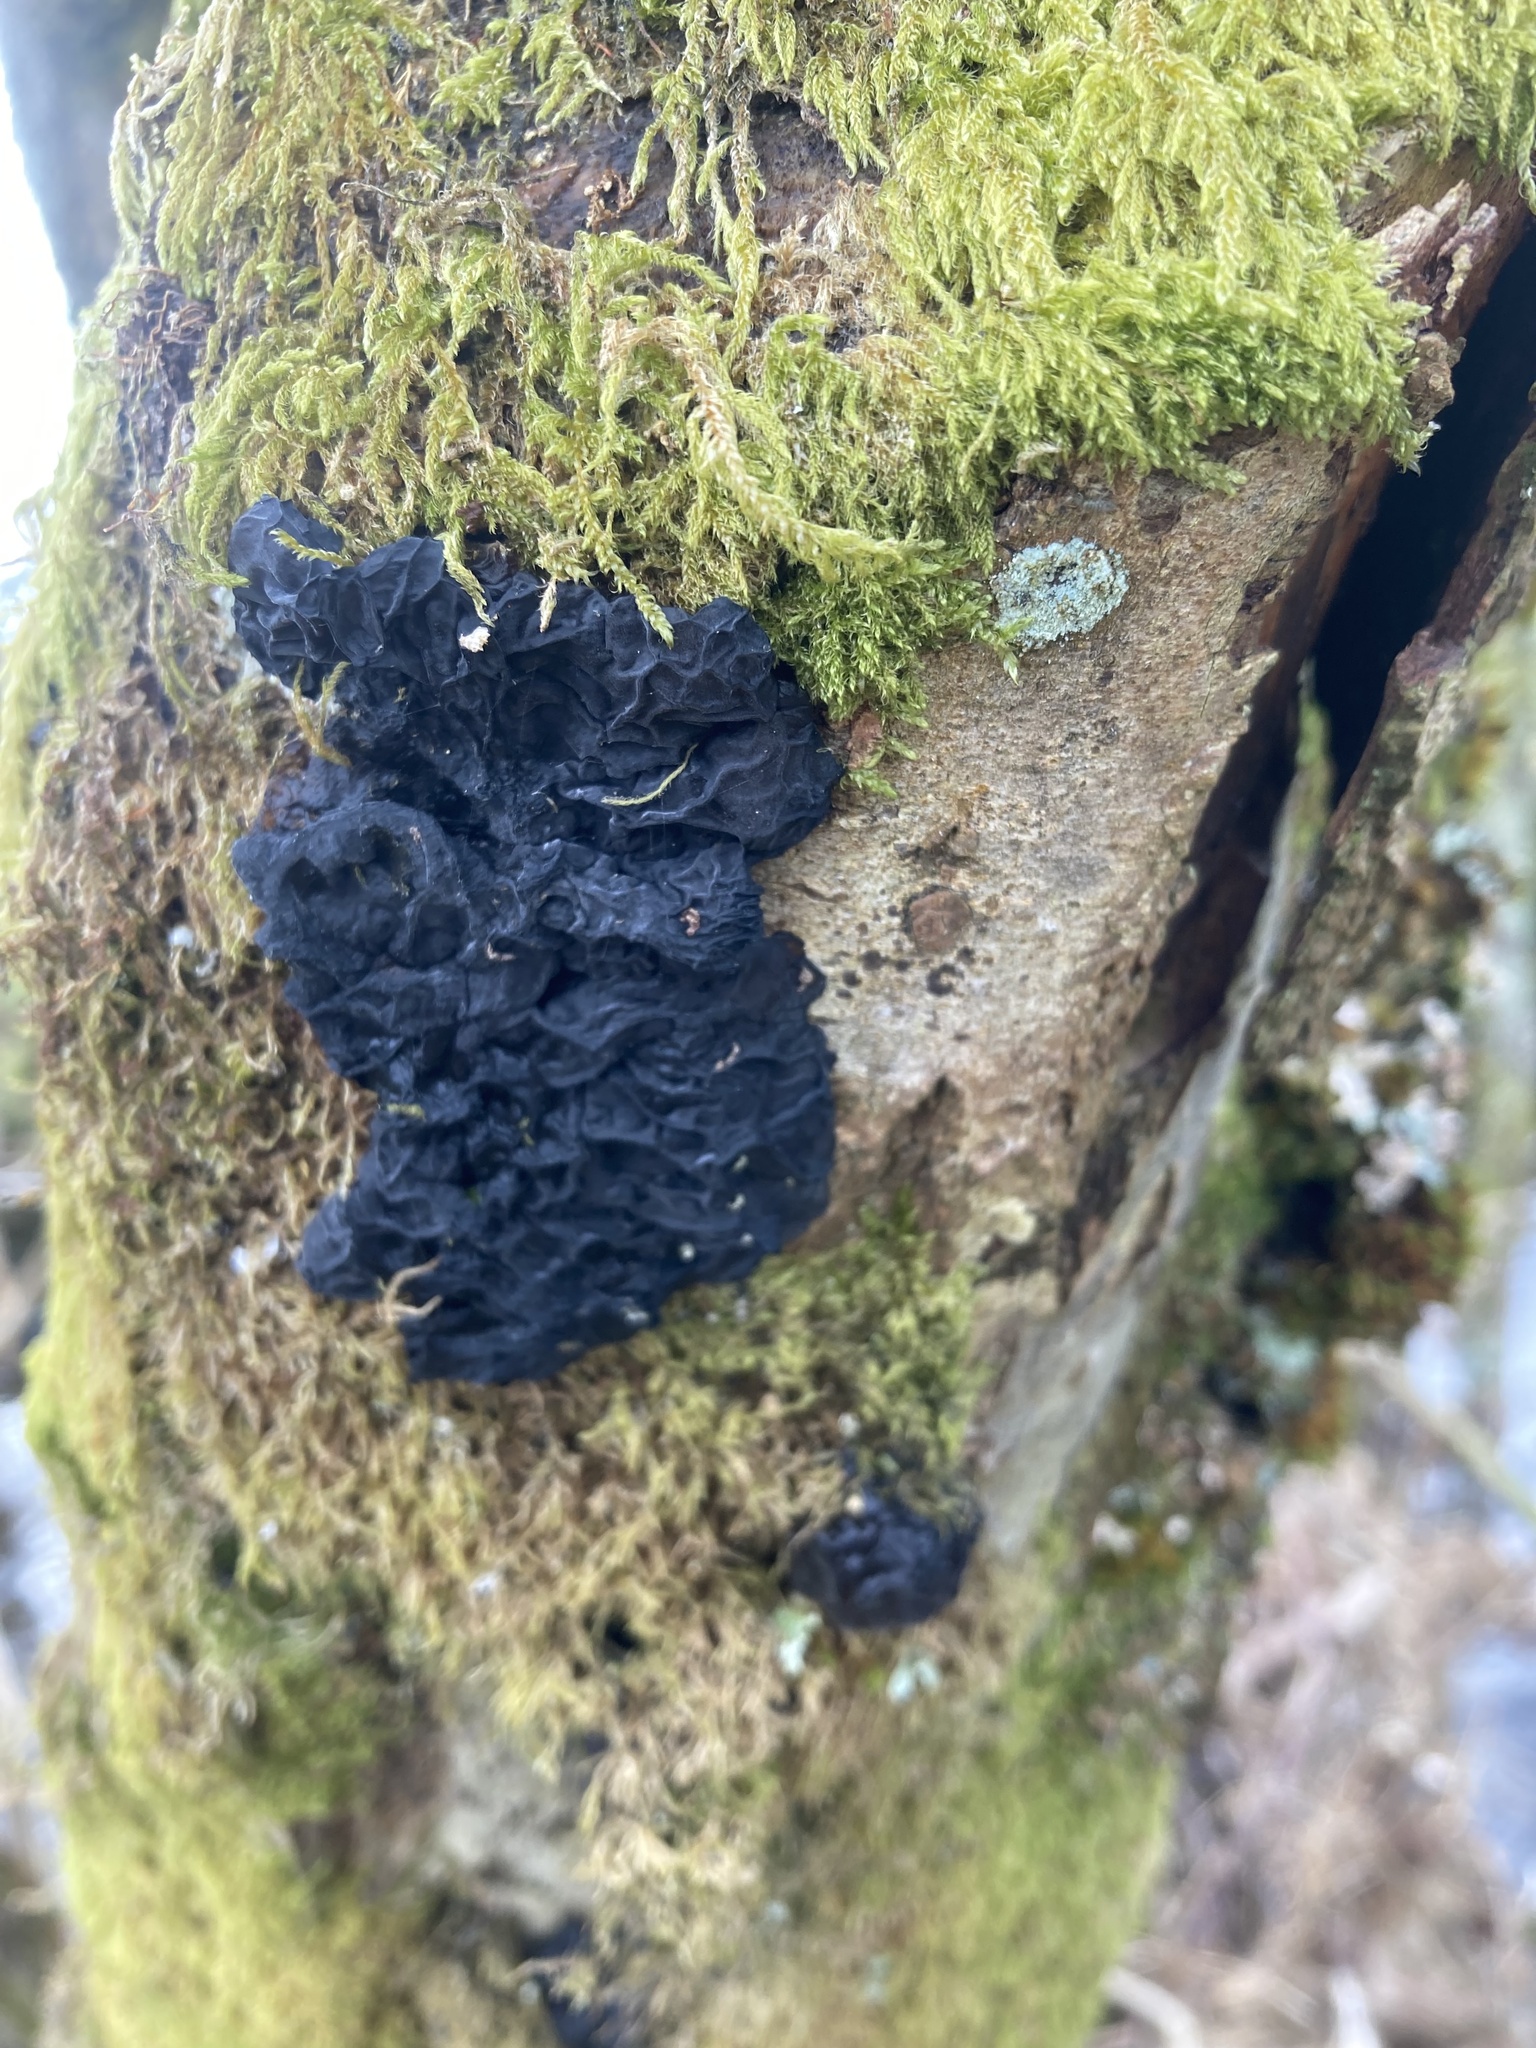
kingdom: Fungi
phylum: Basidiomycota
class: Agaricomycetes
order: Auriculariales
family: Auriculariaceae
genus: Exidia
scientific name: Exidia nigricans
